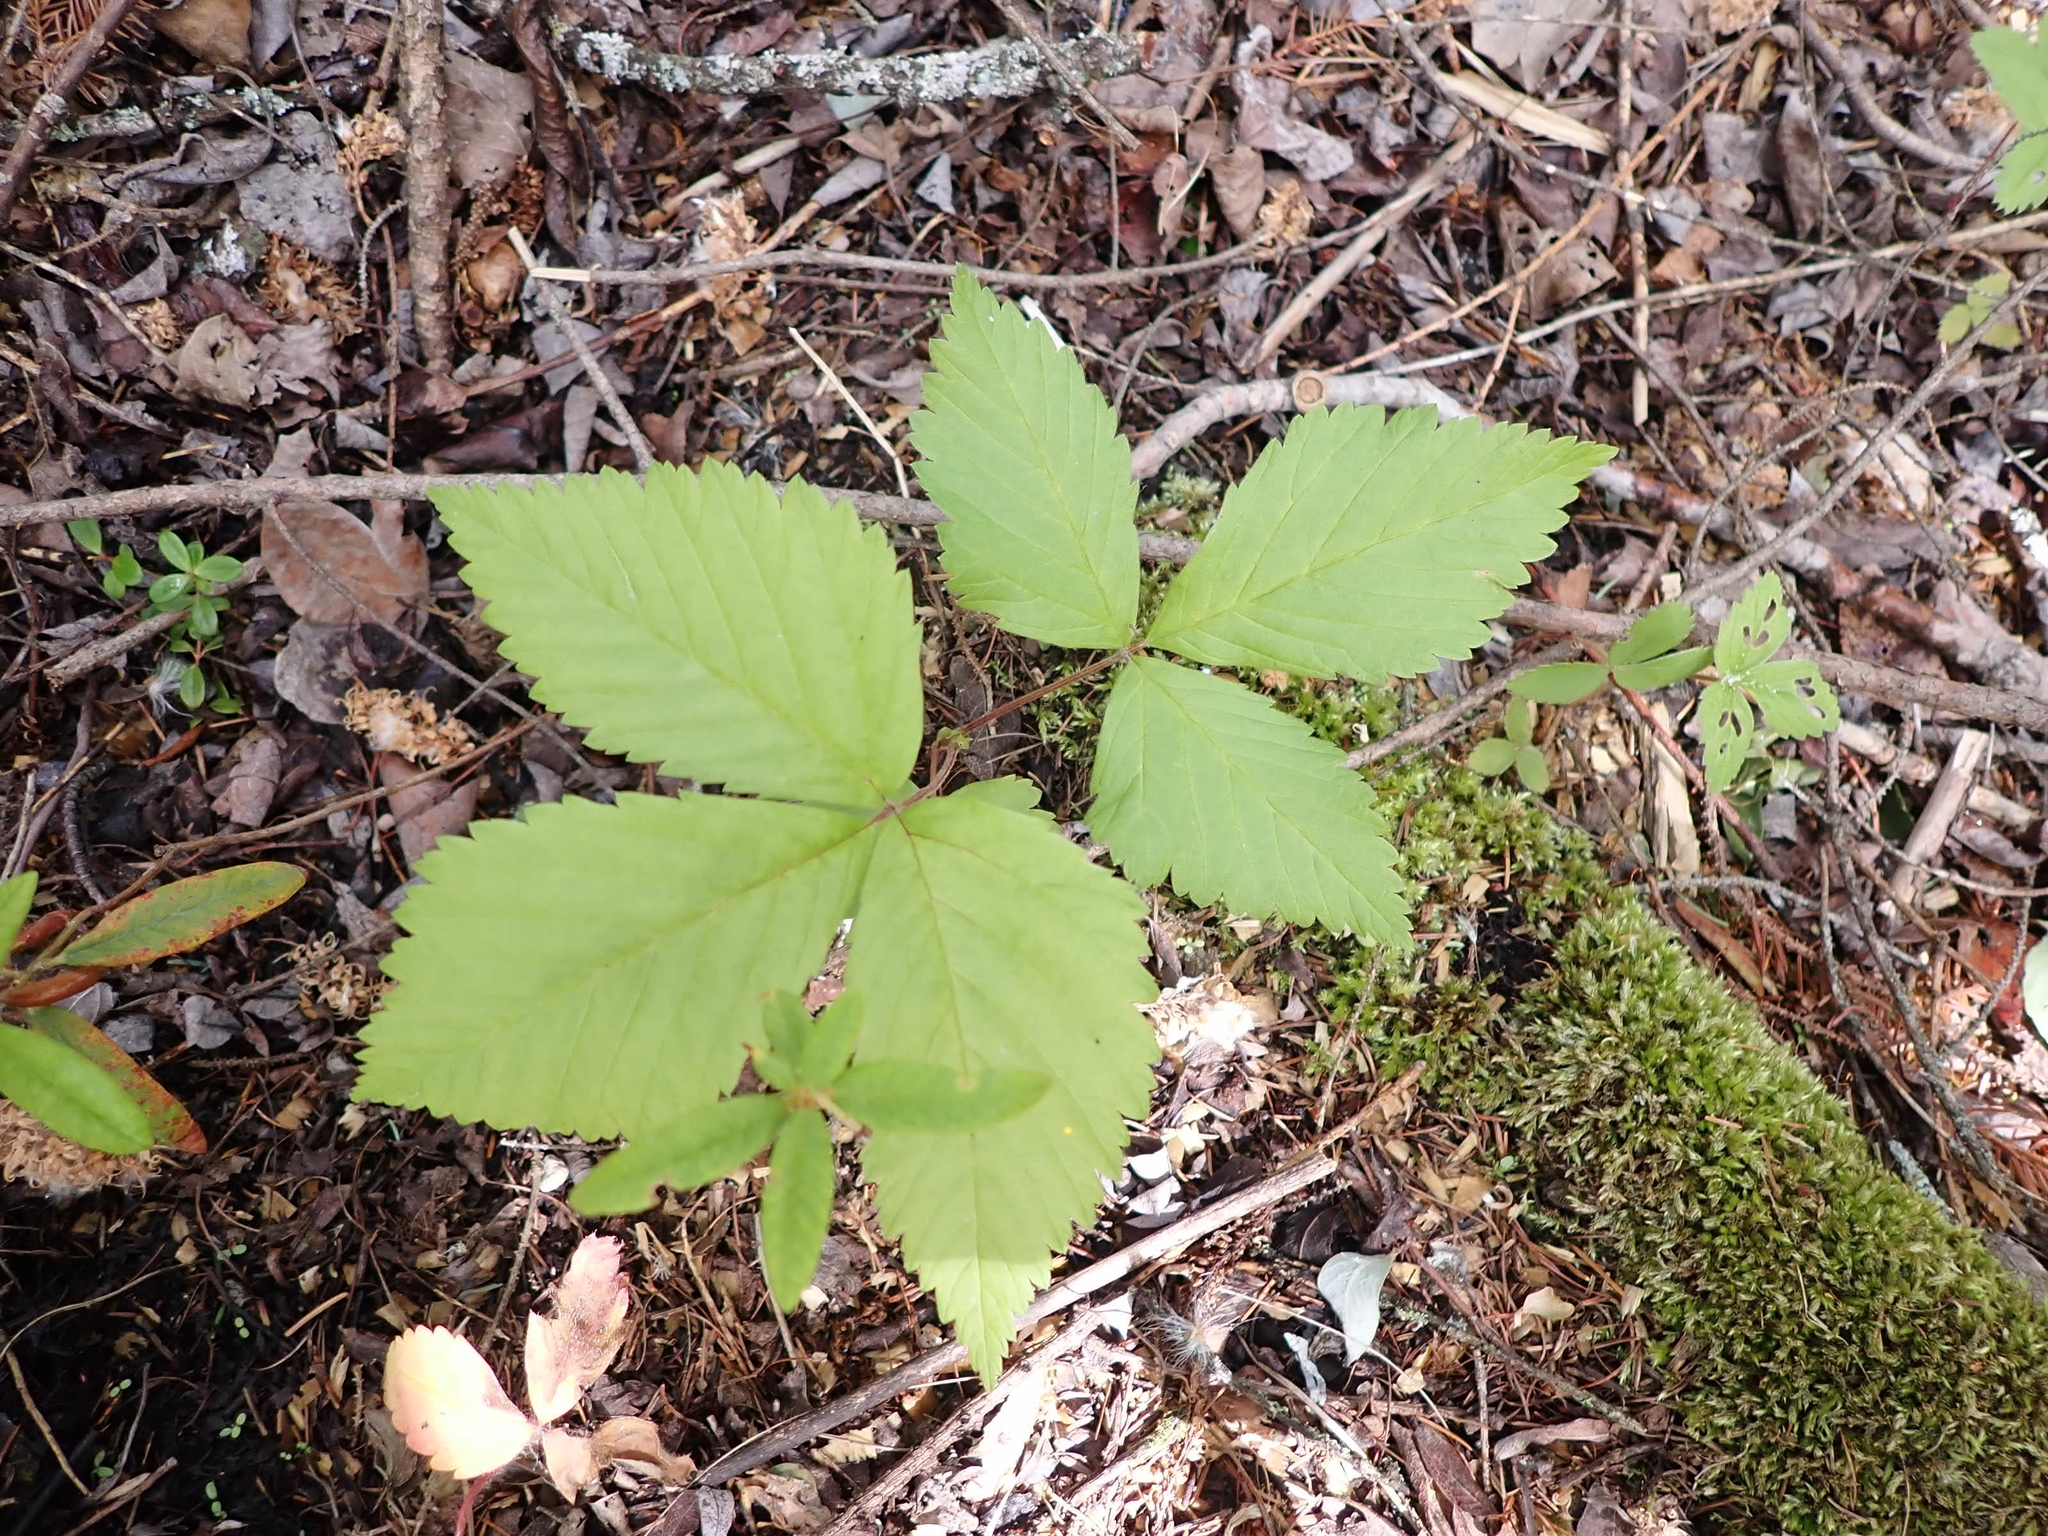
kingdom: Plantae
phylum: Tracheophyta
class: Magnoliopsida
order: Rosales
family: Rosaceae
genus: Rubus
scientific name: Rubus pubescens
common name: Dwarf raspberry
